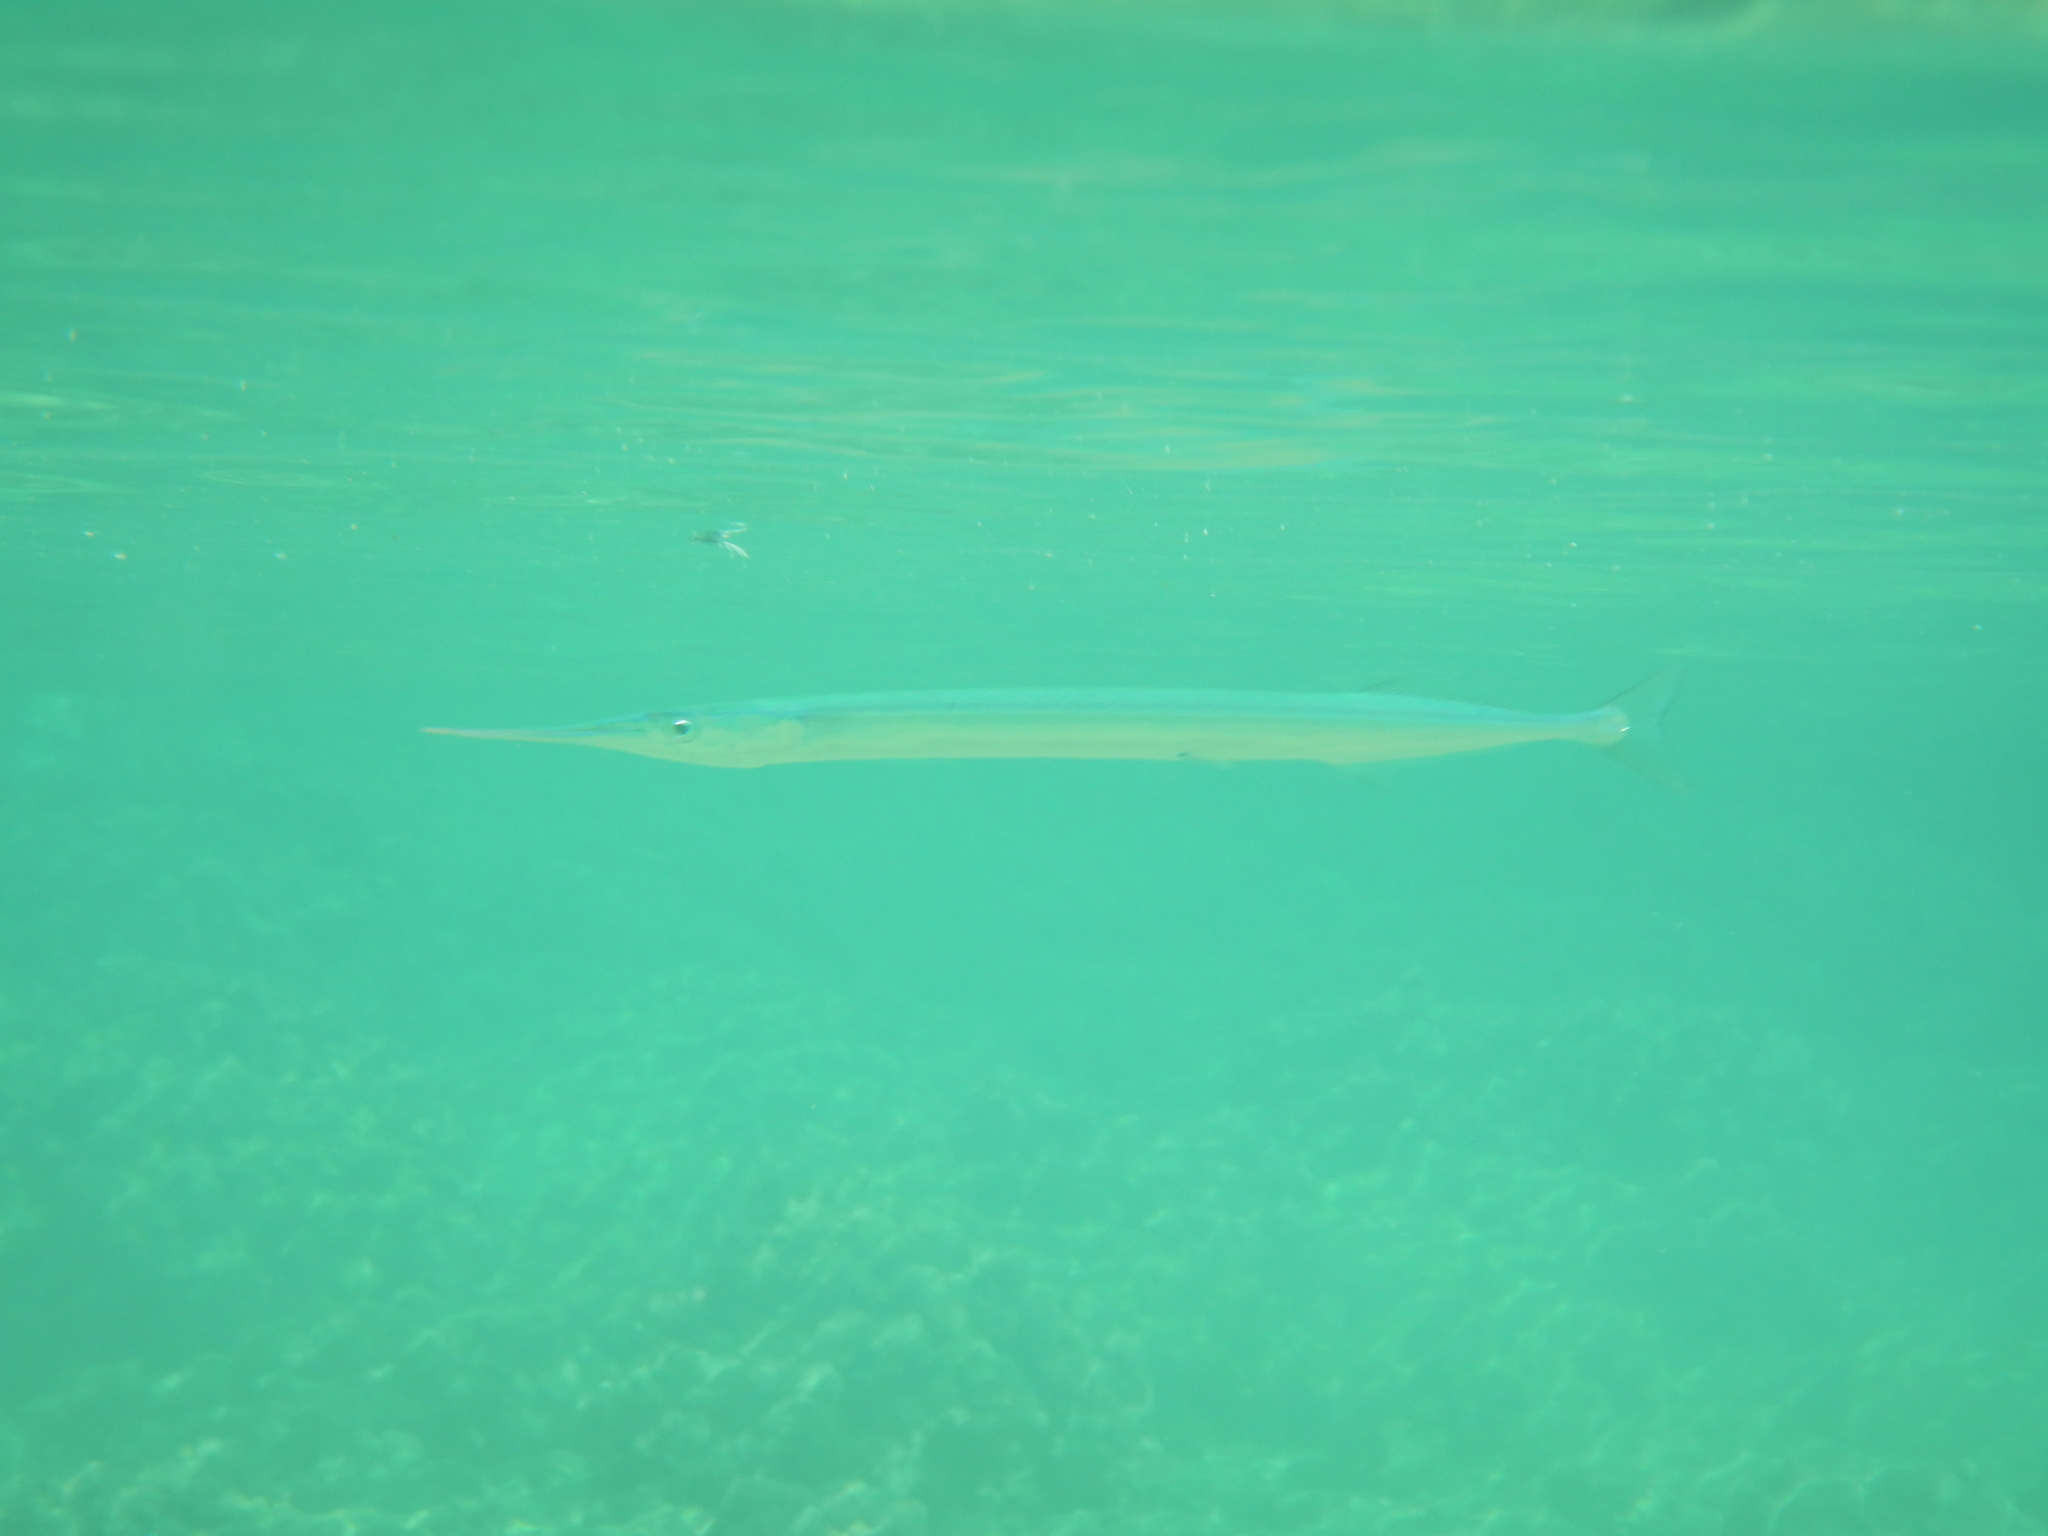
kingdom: Animalia
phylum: Chordata
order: Beloniformes
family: Belonidae
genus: Belone
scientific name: Belone belone
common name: Garfish
